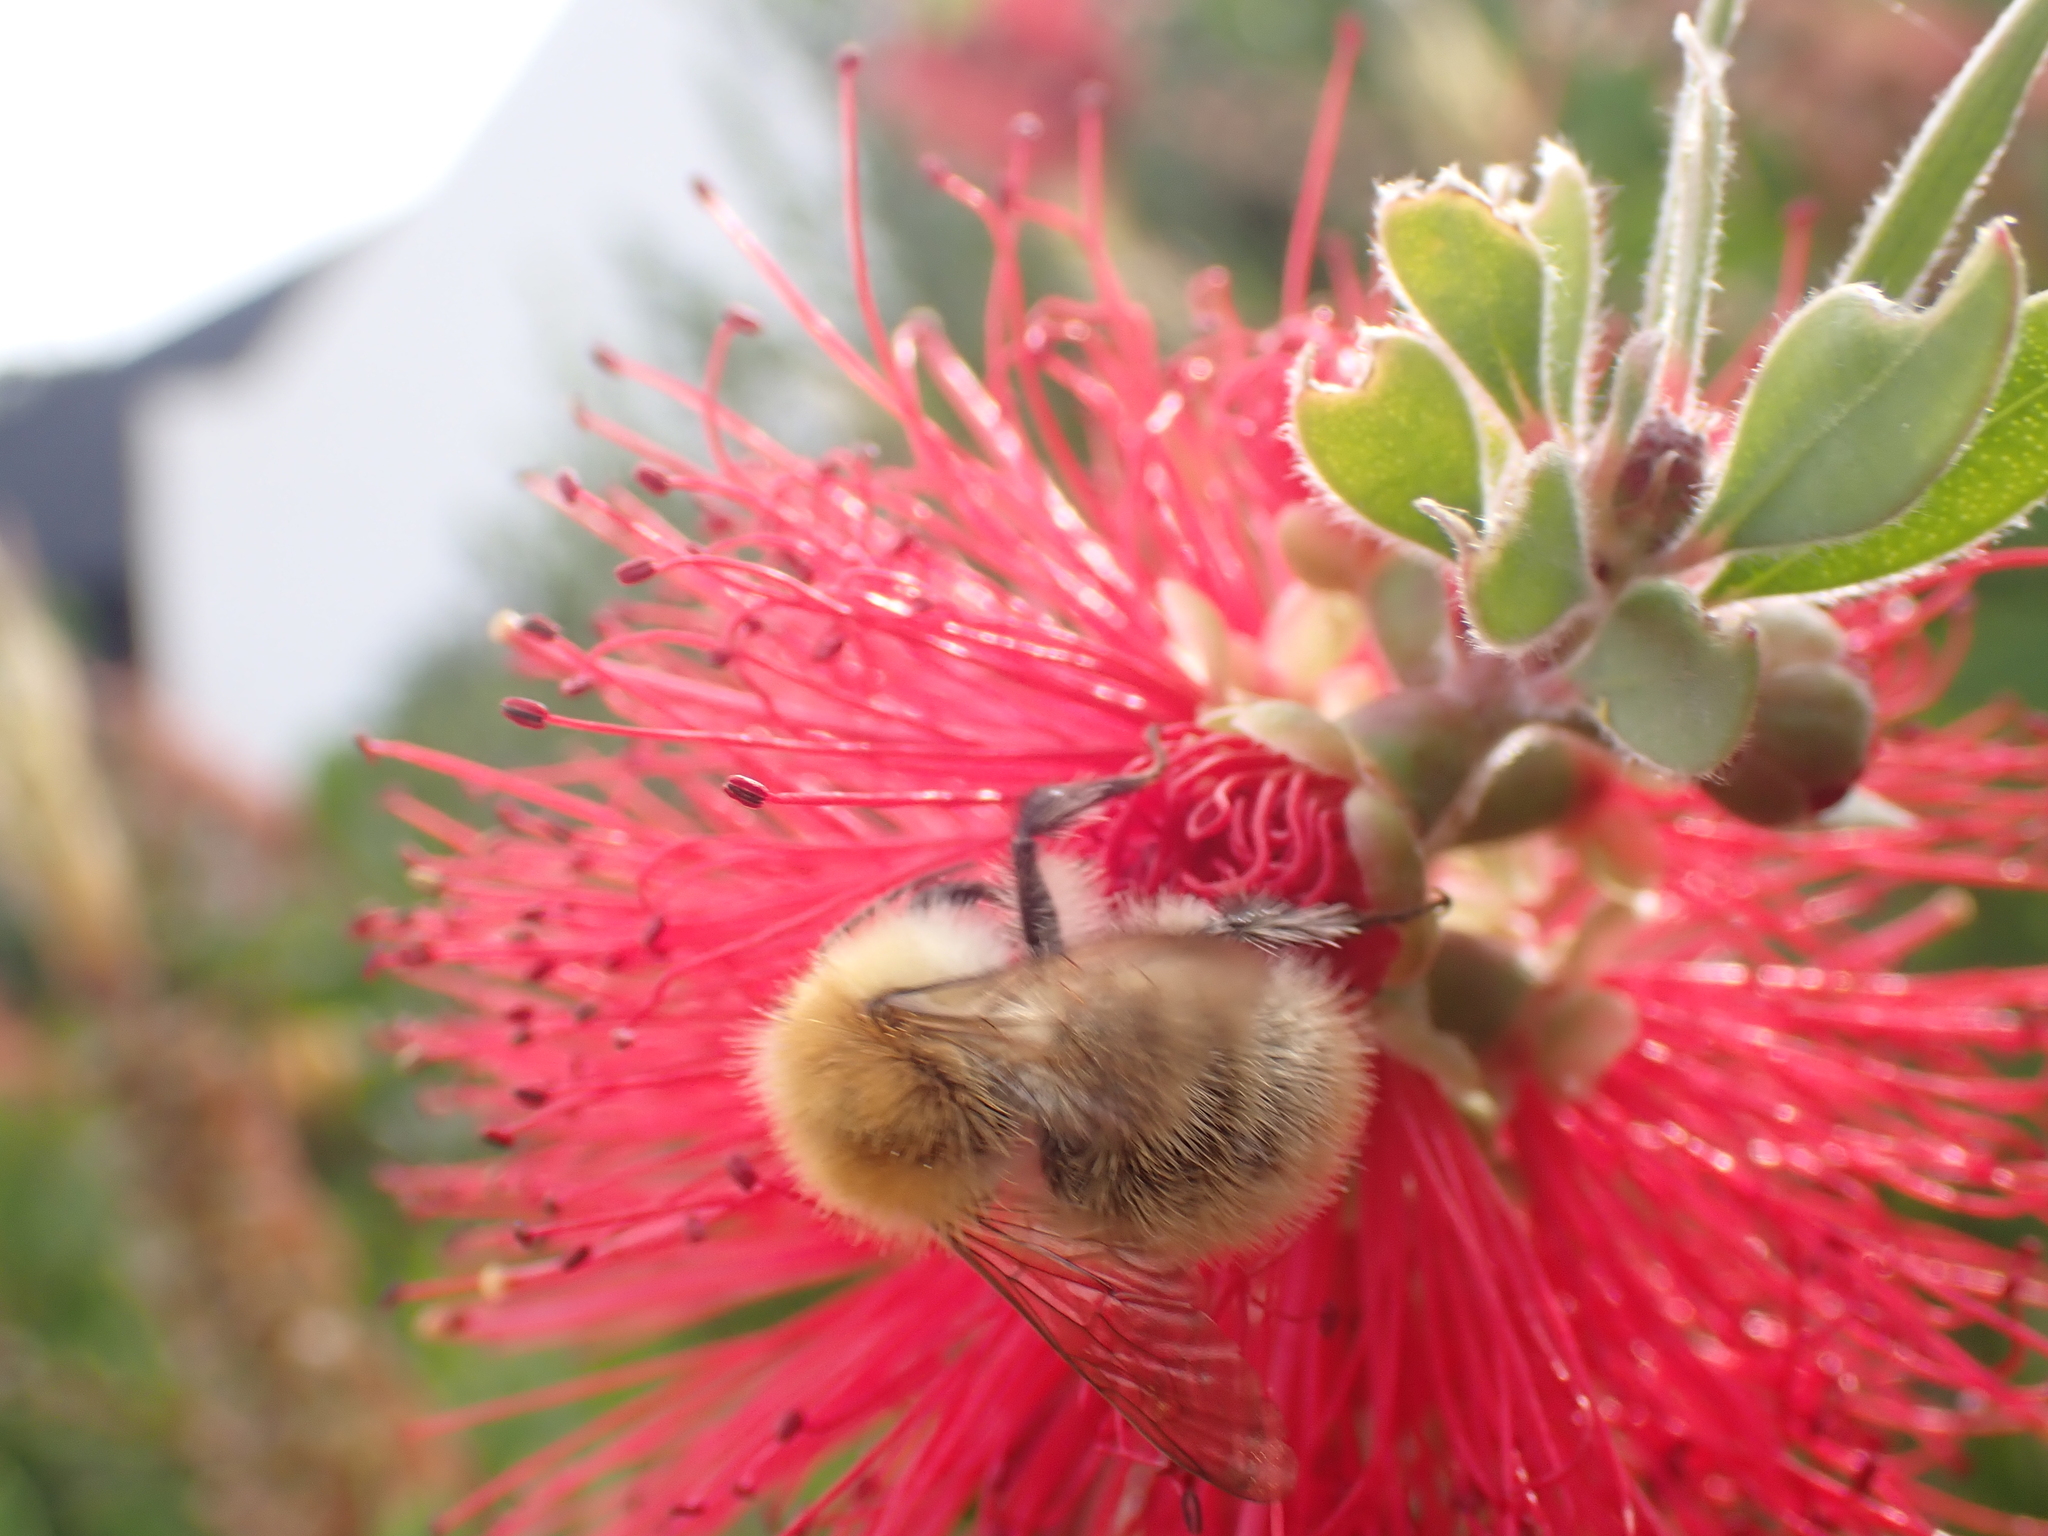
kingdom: Animalia
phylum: Arthropoda
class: Insecta
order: Hymenoptera
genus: Thoracobombus
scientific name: Thoracobombus
